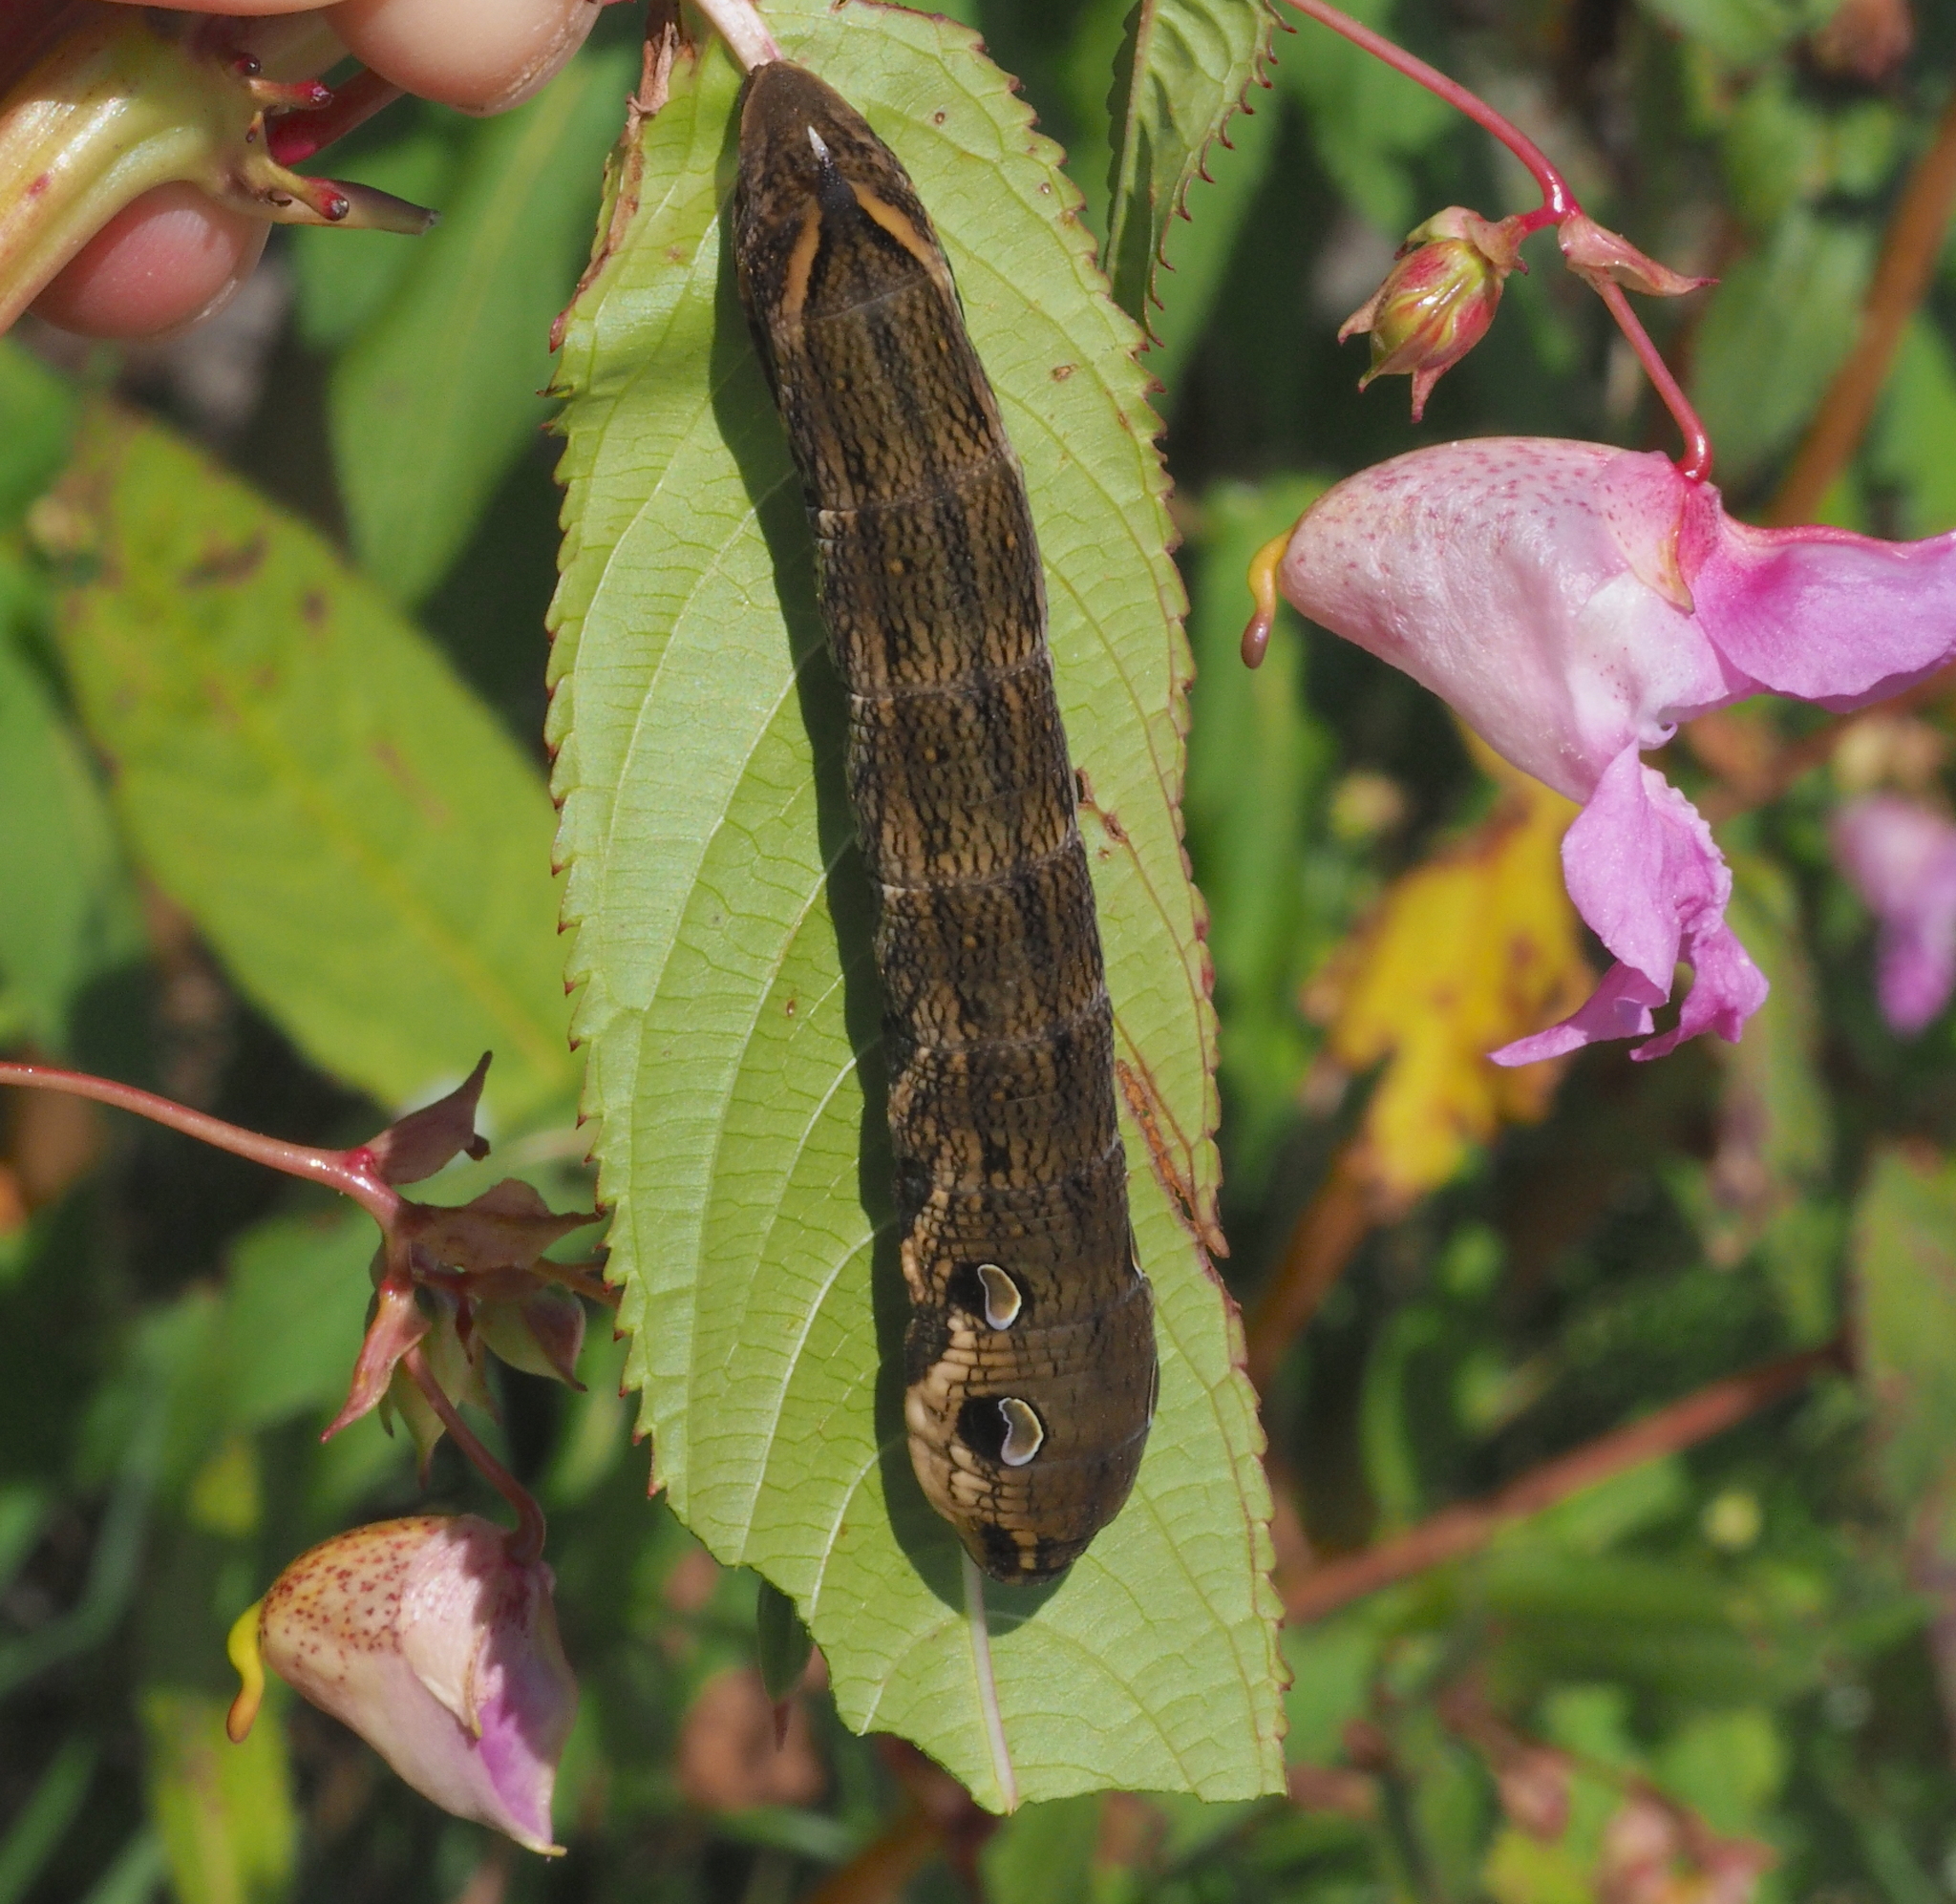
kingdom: Animalia
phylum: Arthropoda
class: Insecta
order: Lepidoptera
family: Sphingidae
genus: Deilephila
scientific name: Deilephila elpenor
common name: Elephant hawk-moth
